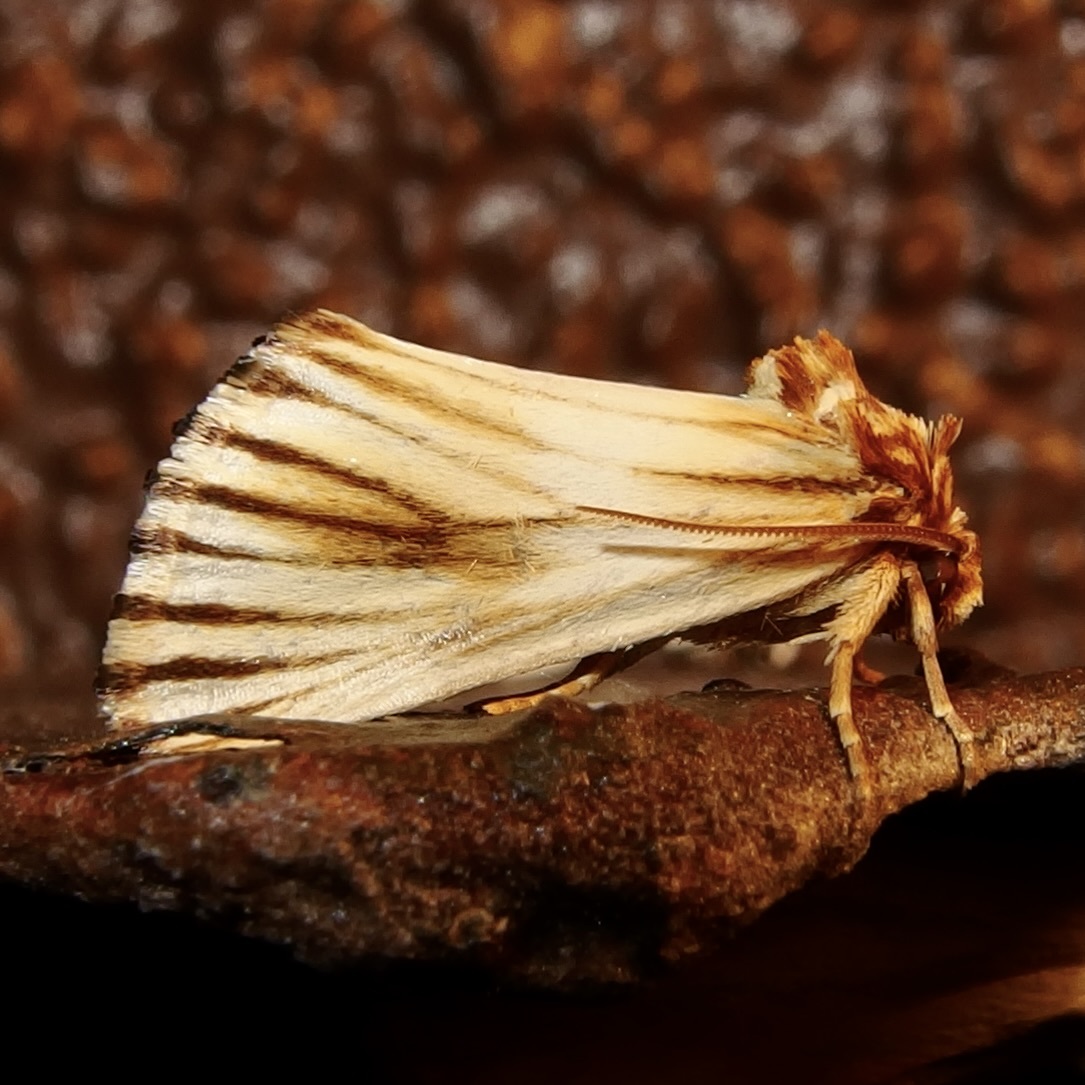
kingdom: Animalia
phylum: Arthropoda
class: Insecta
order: Lepidoptera
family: Noctuidae
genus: Antaplaga
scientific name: Antaplaga discistriga
